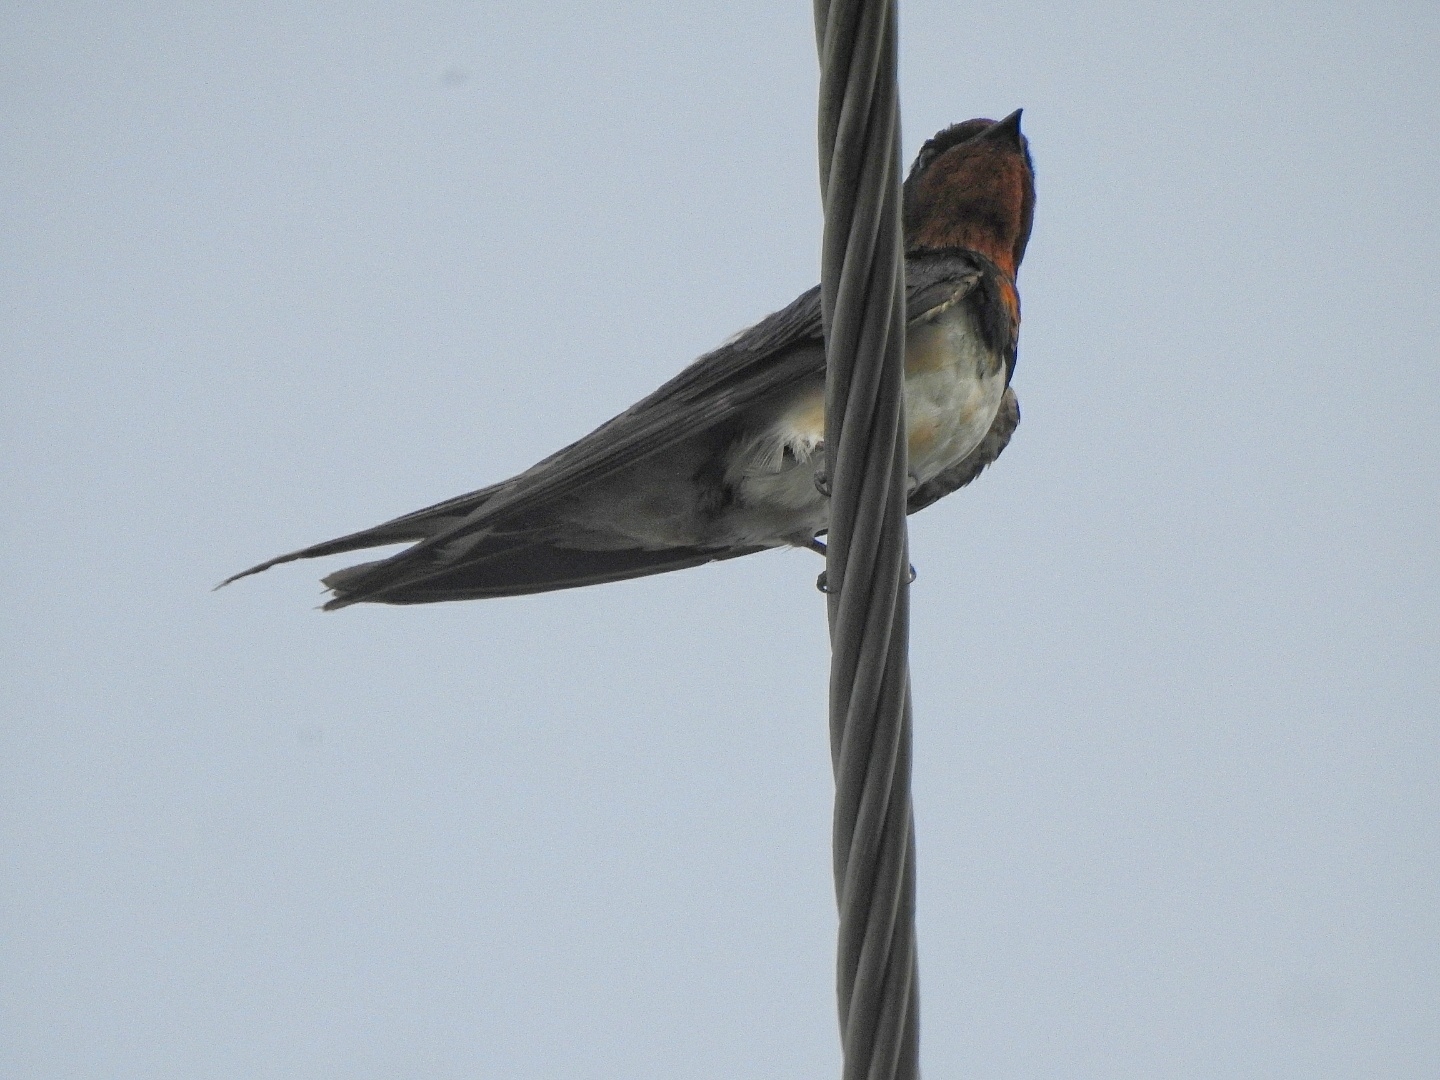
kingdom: Animalia
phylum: Chordata
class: Aves
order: Passeriformes
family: Hirundinidae
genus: Hirundo
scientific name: Hirundo rustica
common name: Barn swallow
